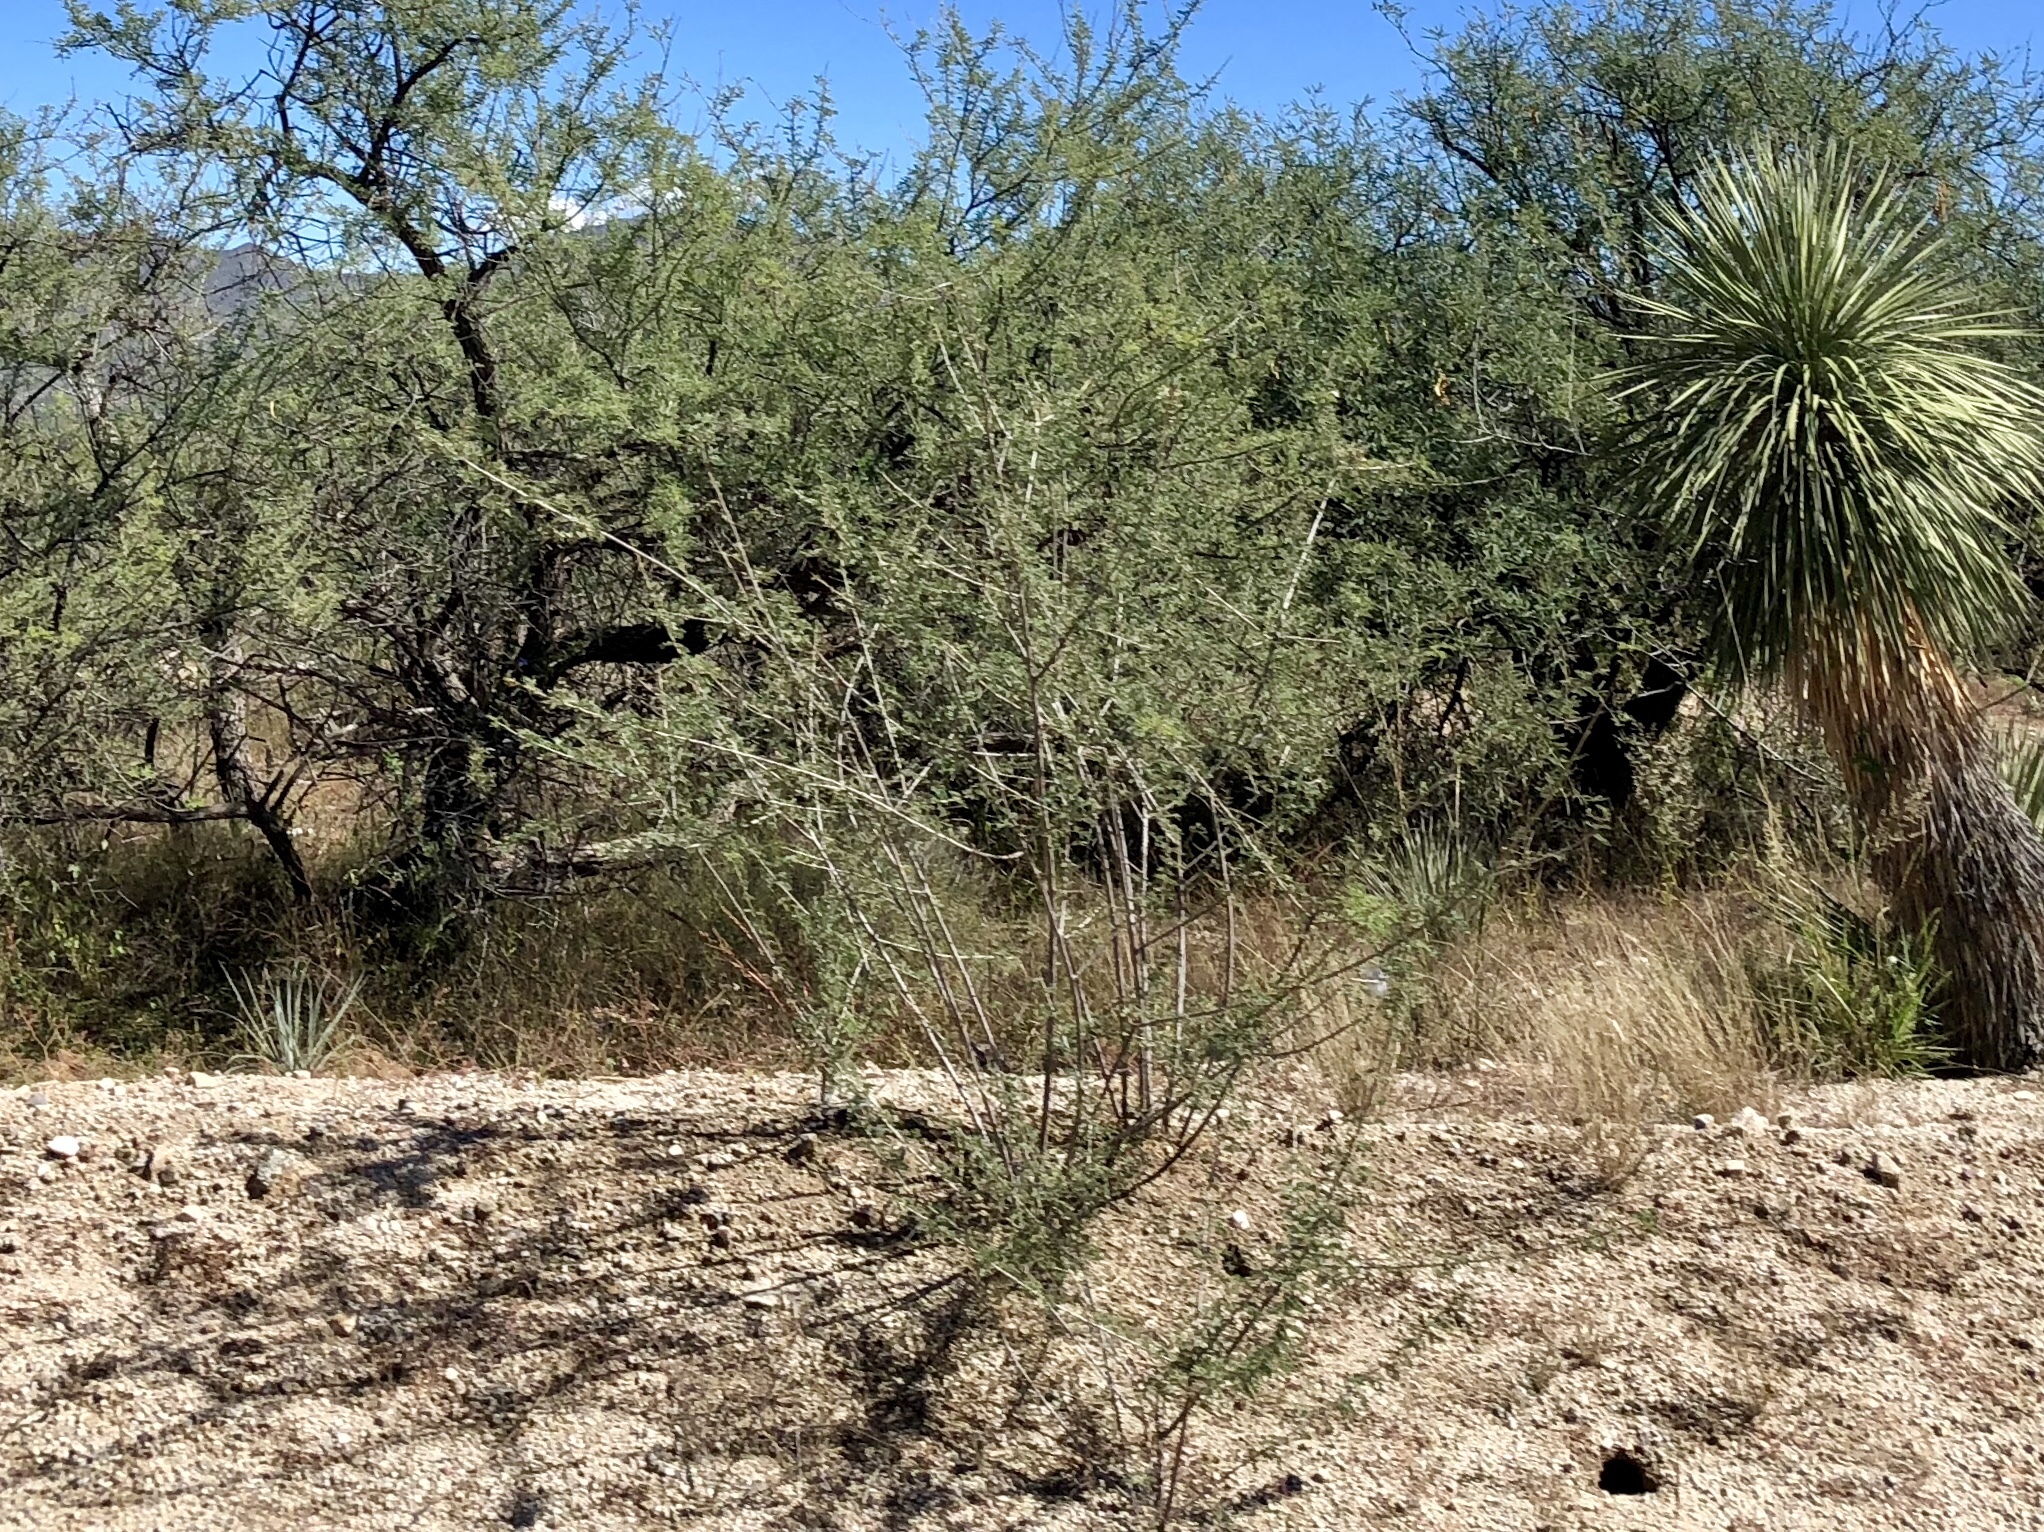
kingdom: Plantae
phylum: Tracheophyta
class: Magnoliopsida
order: Fabales
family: Fabaceae
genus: Vachellia
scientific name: Vachellia constricta
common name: Mescat acacia
